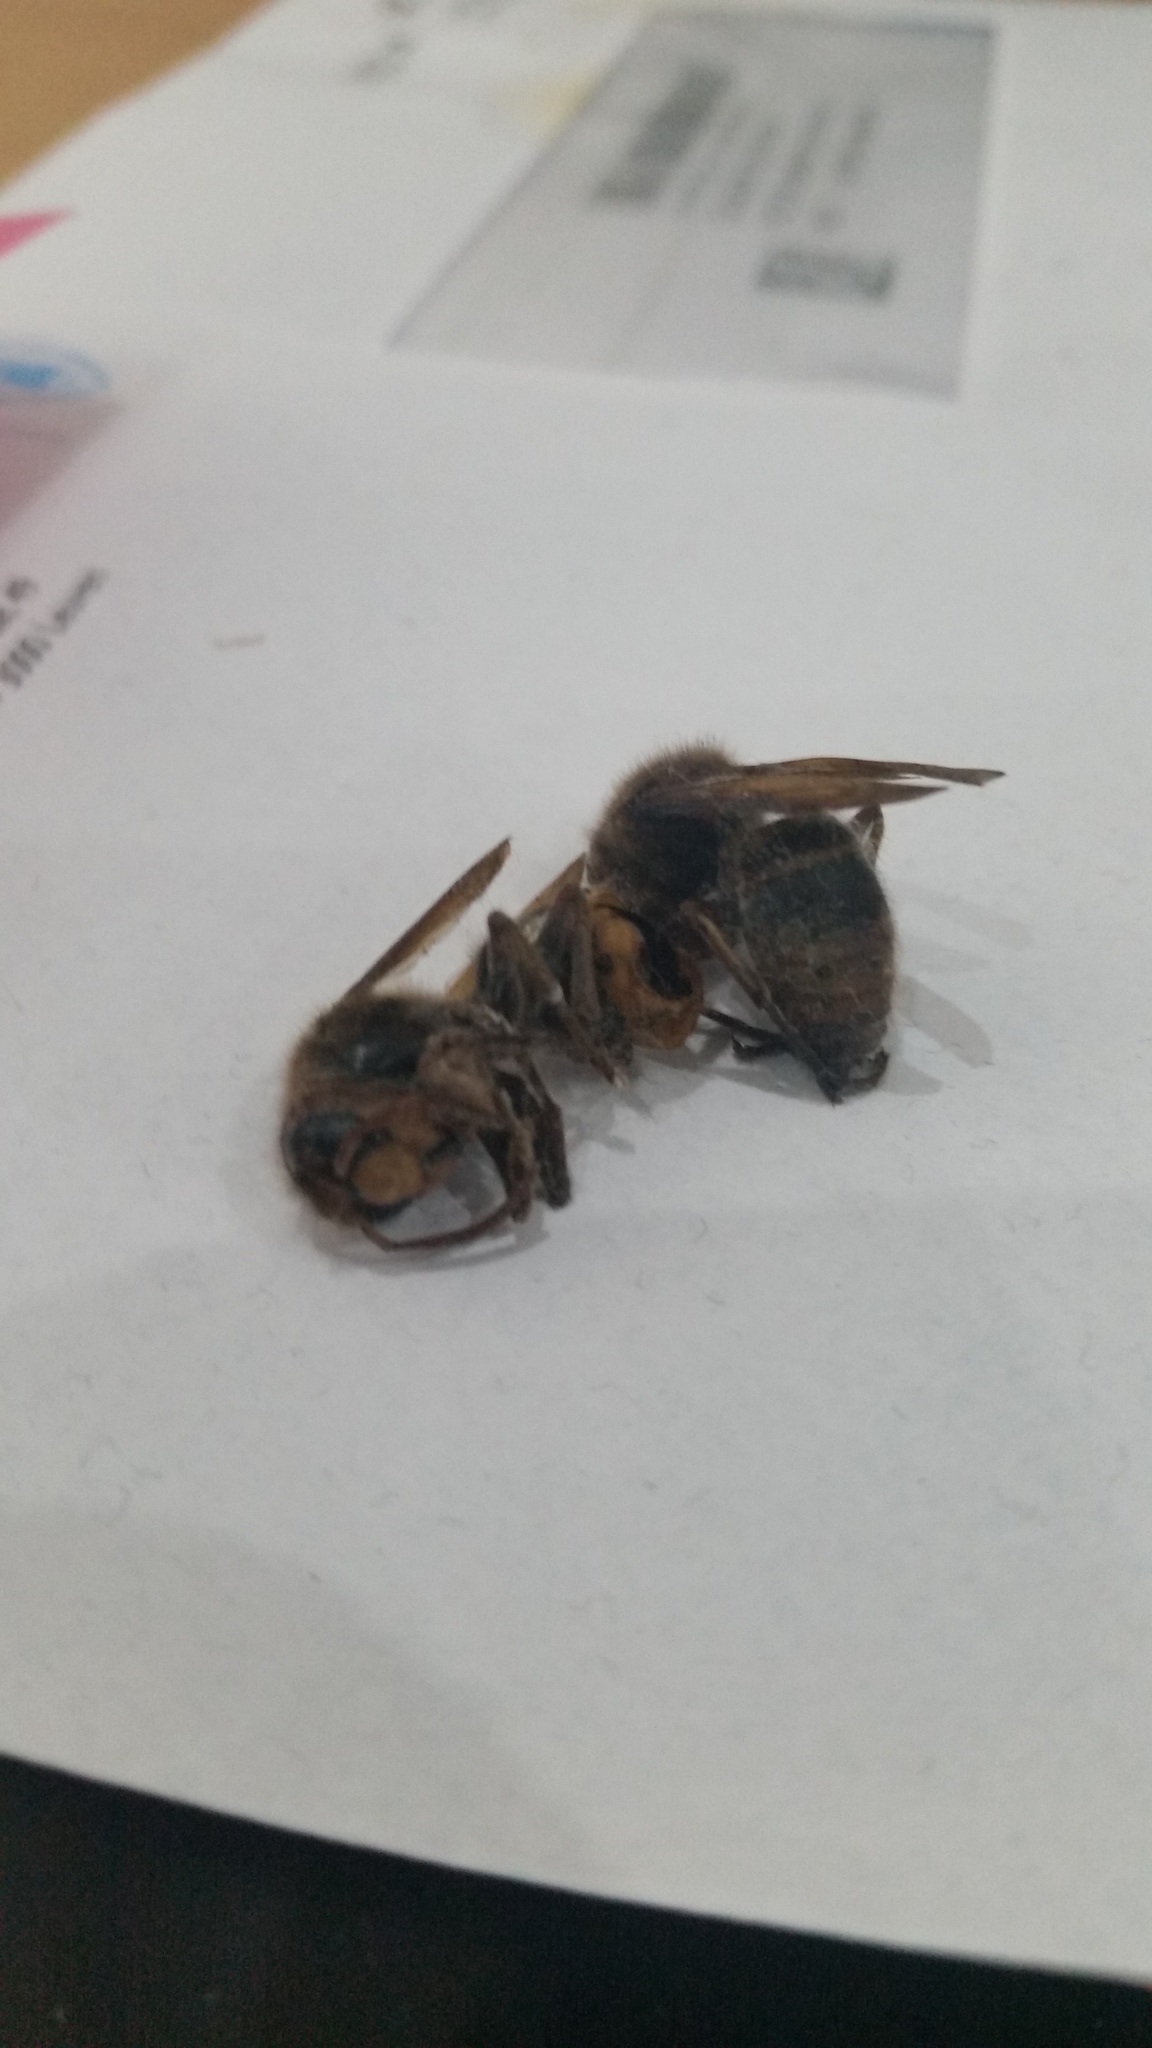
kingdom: Animalia
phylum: Arthropoda
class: Insecta
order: Hymenoptera
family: Vespidae
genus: Vespa
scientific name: Vespa crabro
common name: Hornet
